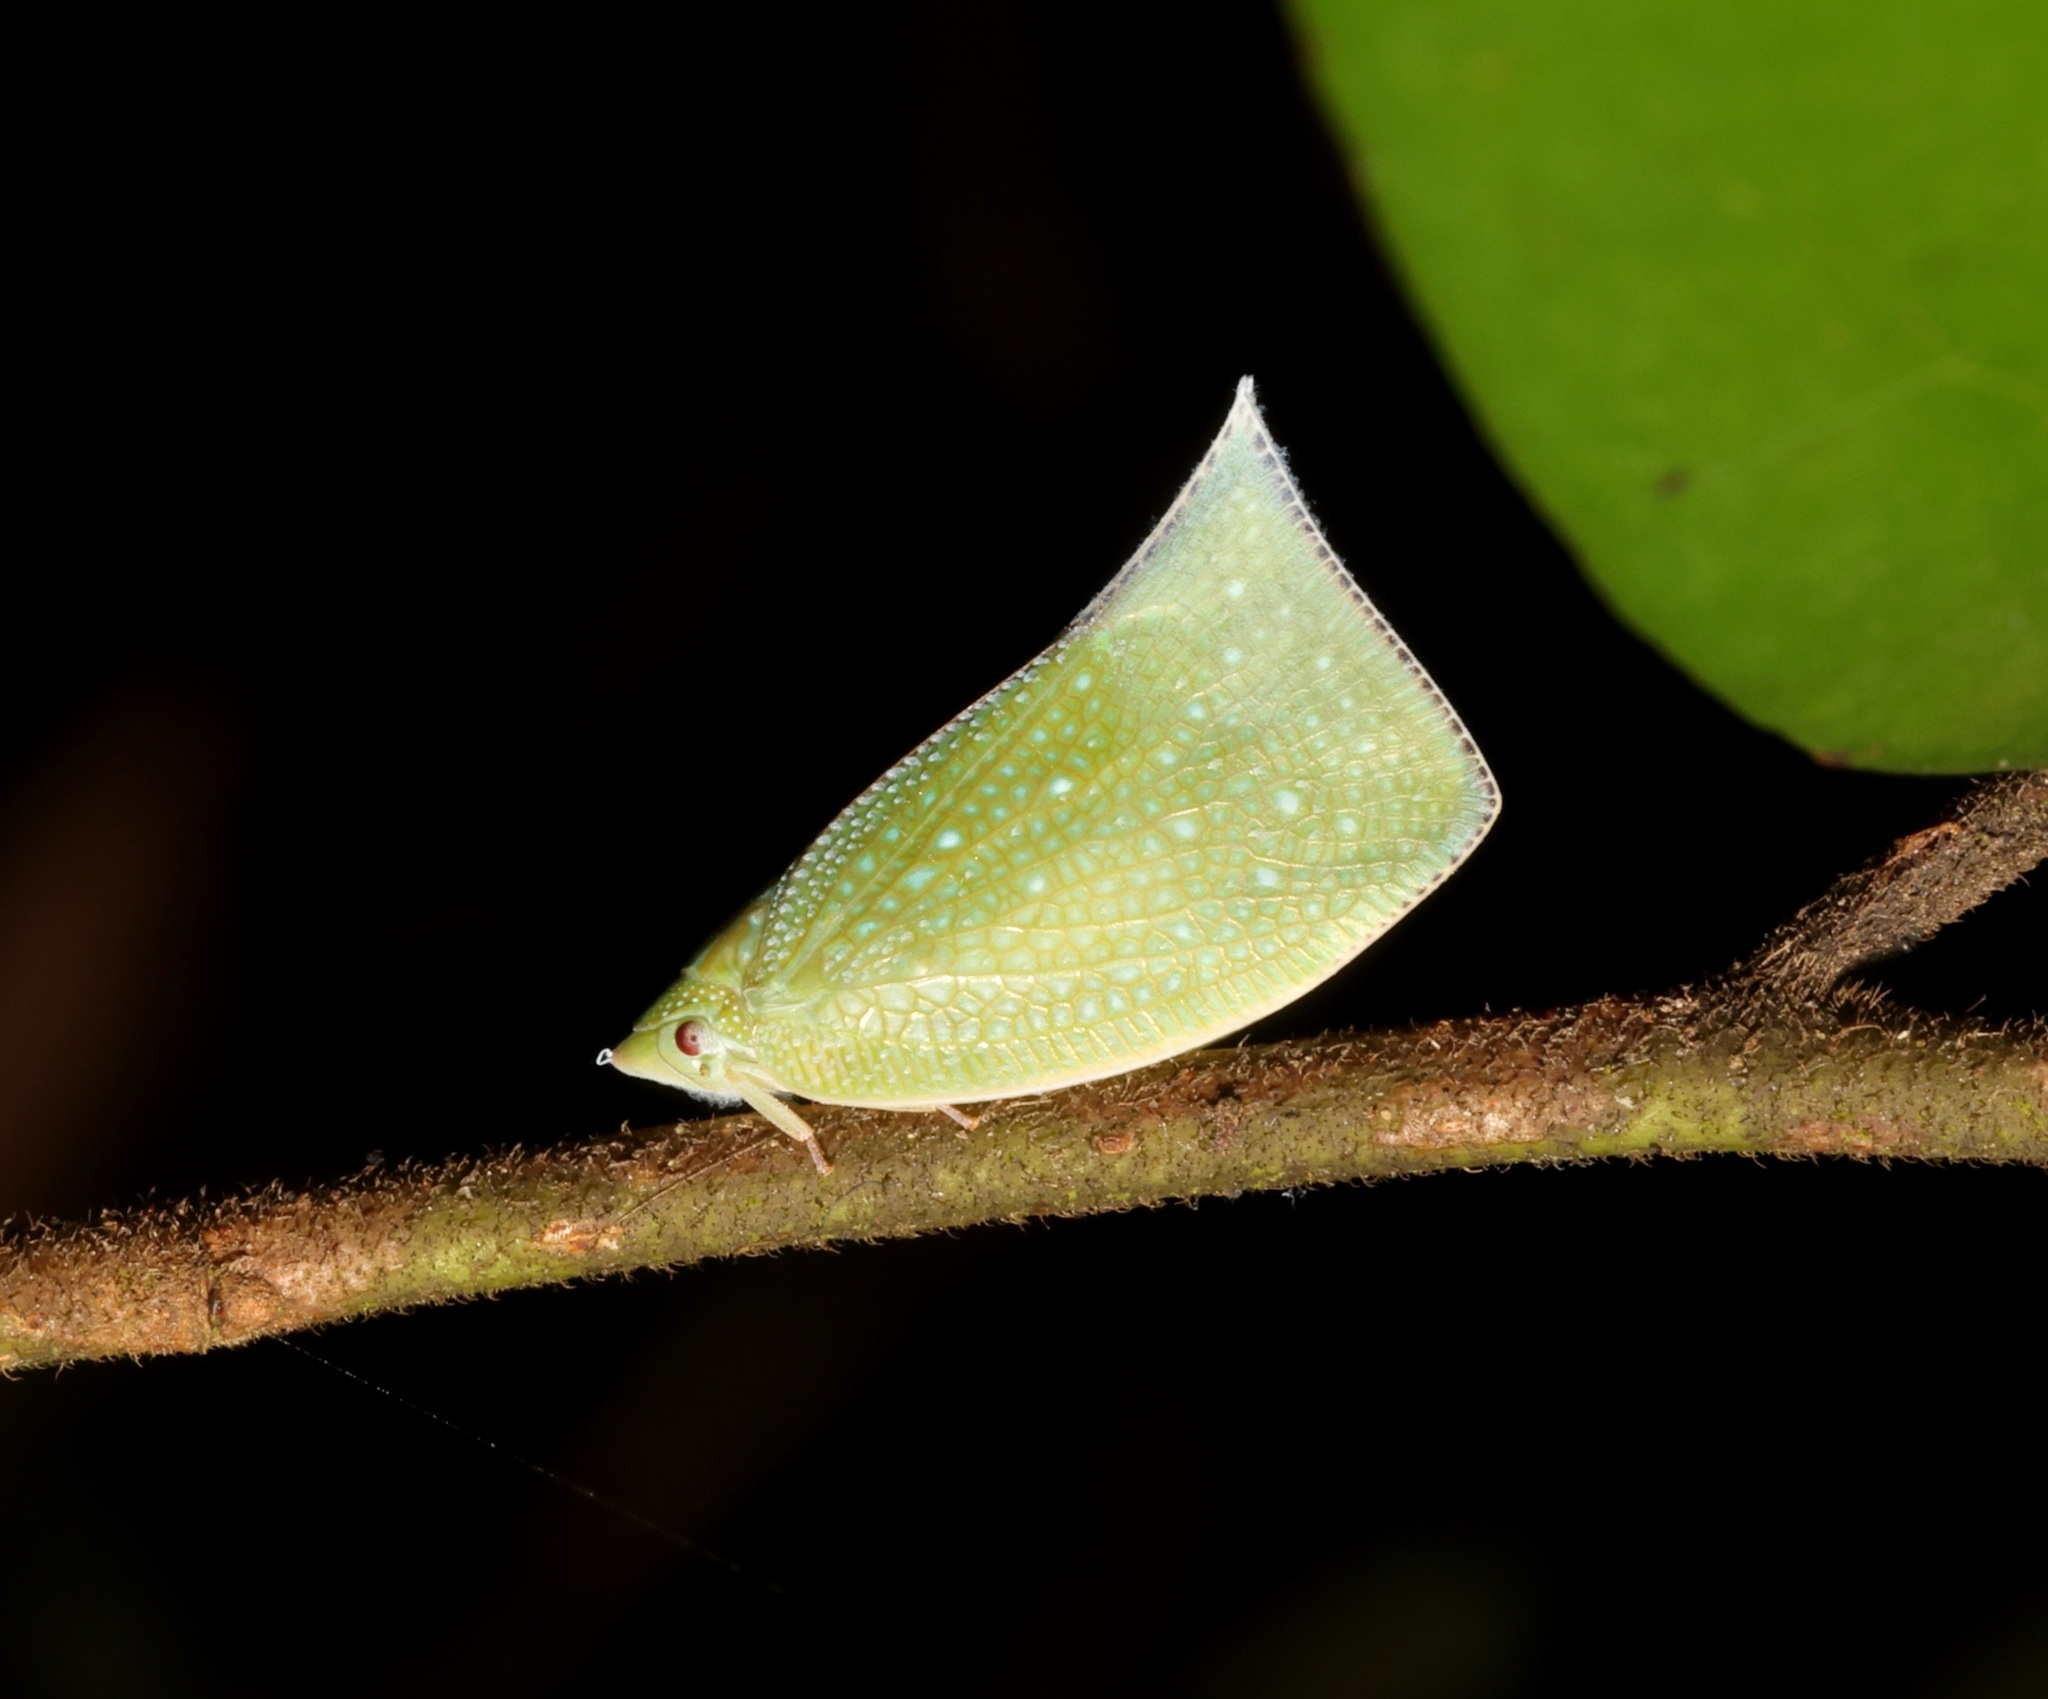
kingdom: Animalia
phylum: Arthropoda
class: Insecta
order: Hemiptera
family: Flatidae
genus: Cromna
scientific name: Cromna sinensis
